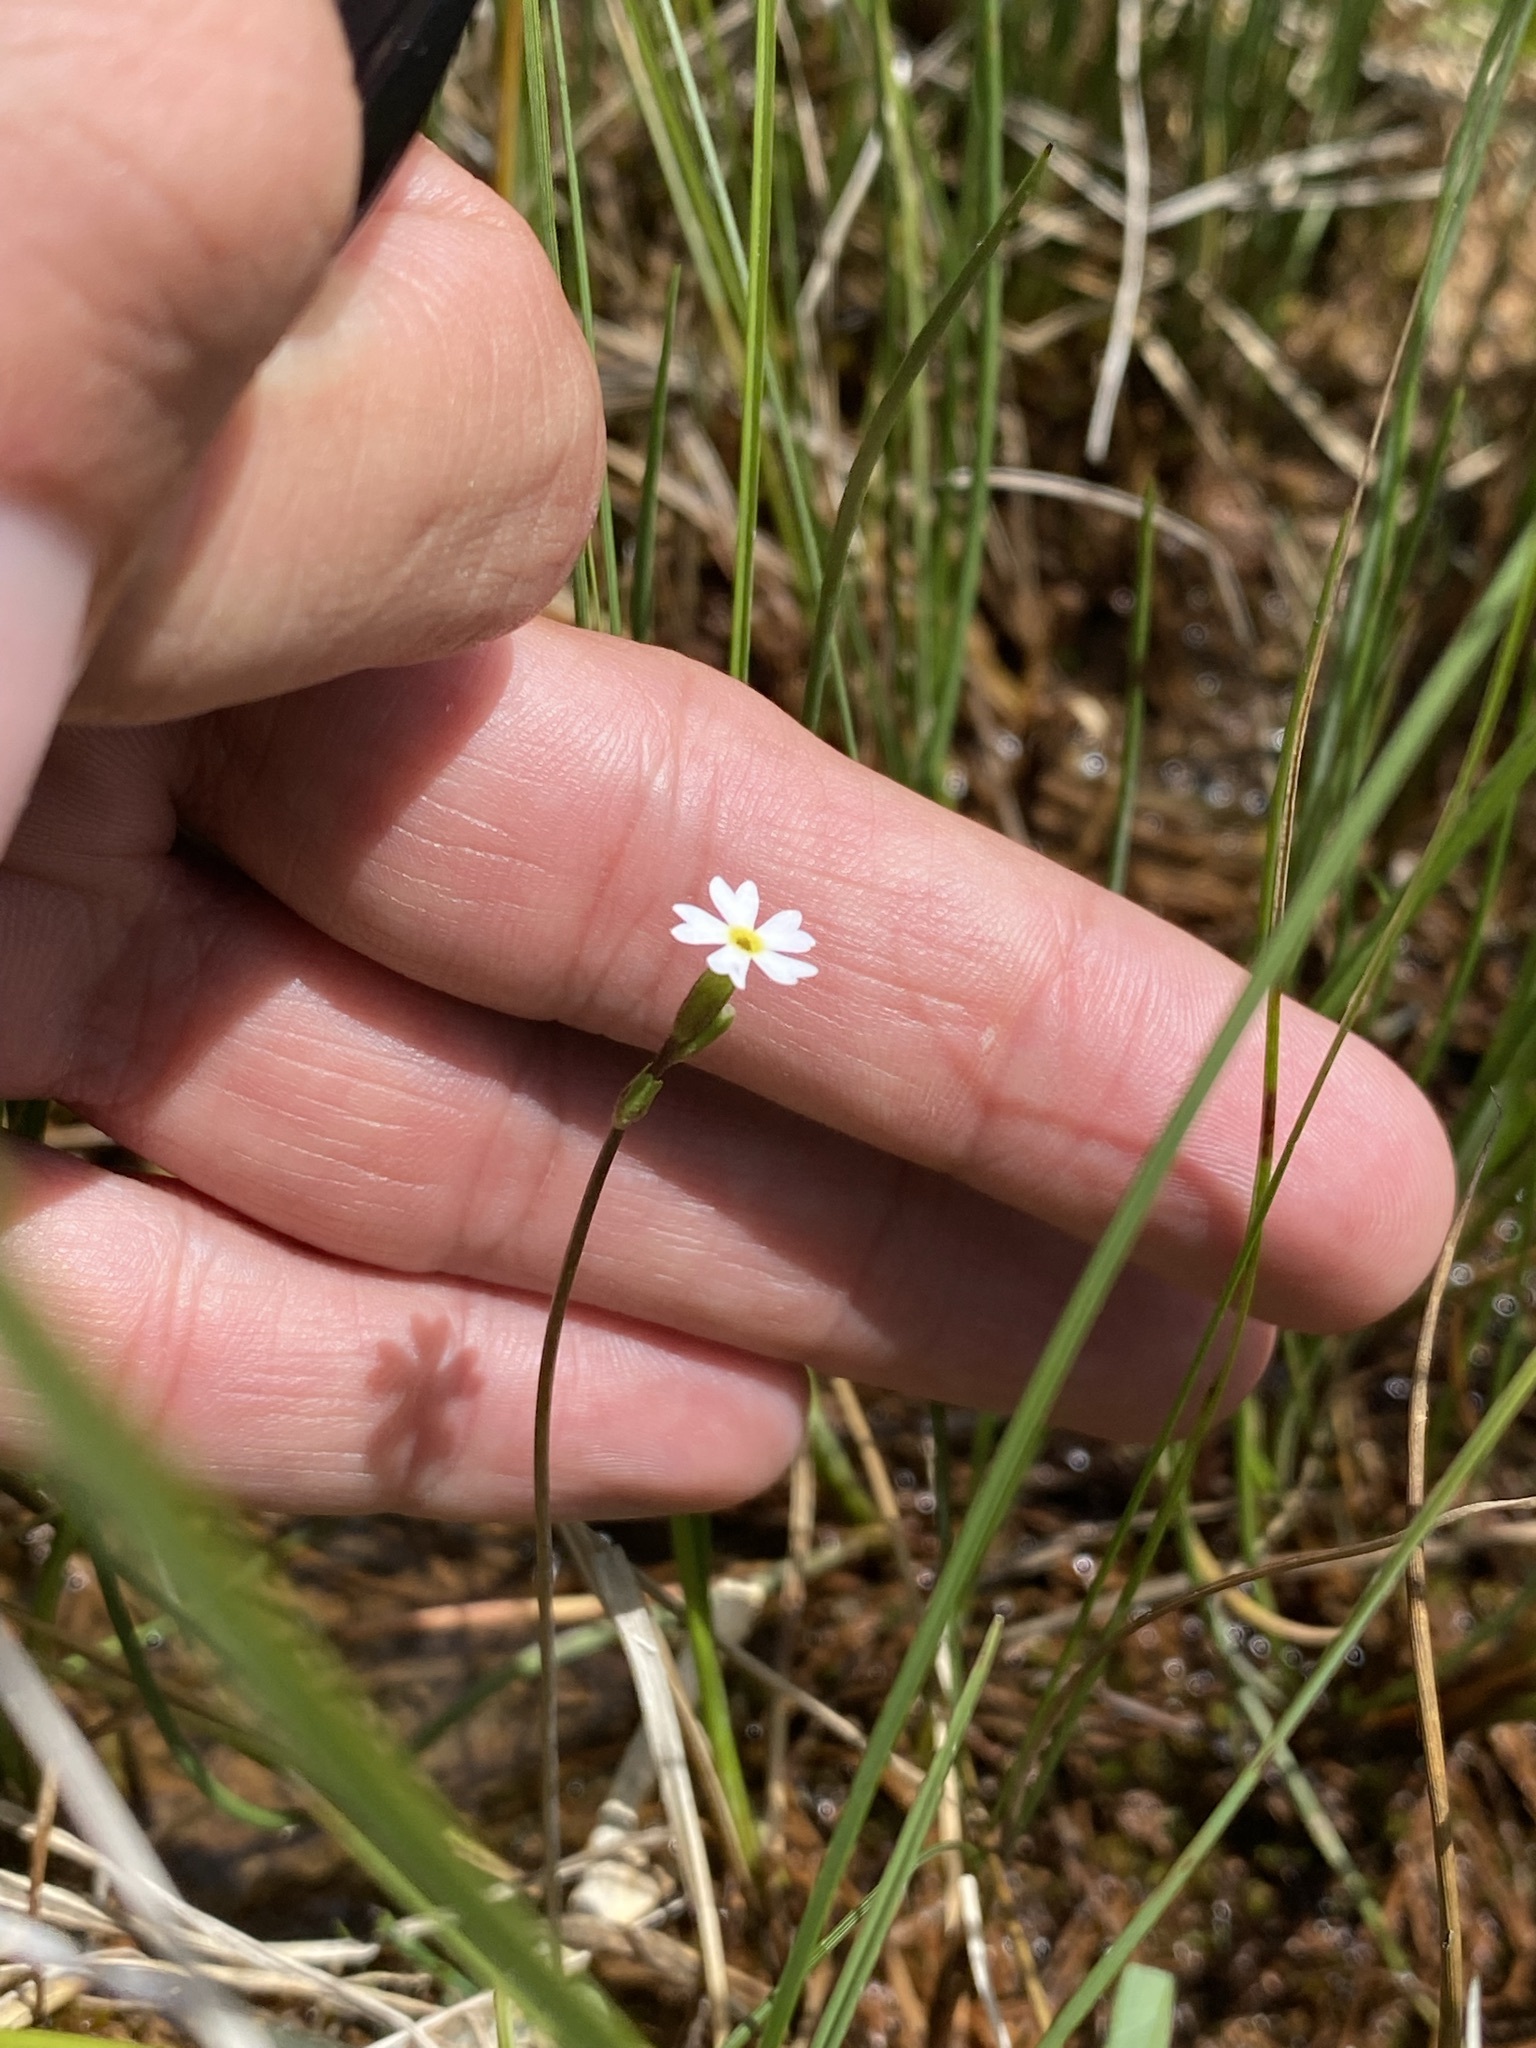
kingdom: Plantae
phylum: Tracheophyta
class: Magnoliopsida
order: Ericales
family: Primulaceae
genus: Primula
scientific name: Primula egaliksensis
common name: Greenland primrose
